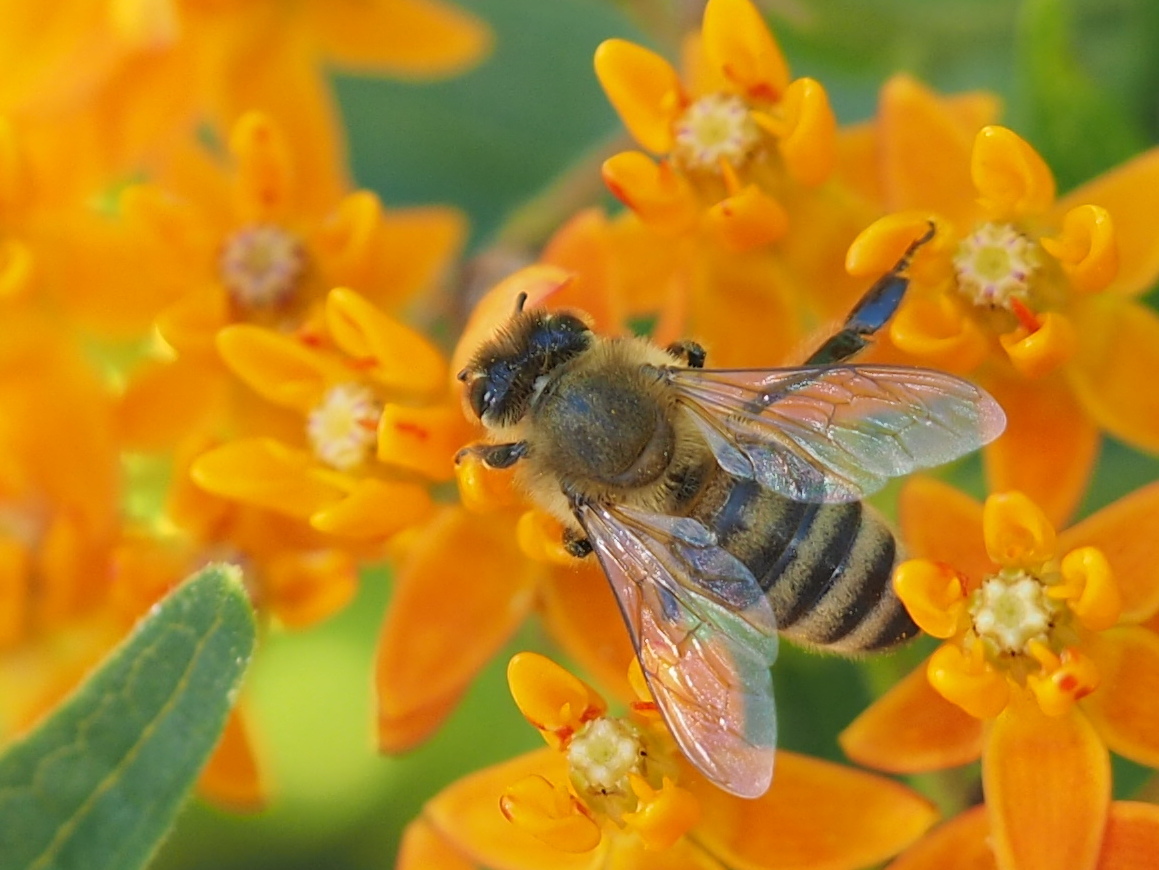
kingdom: Animalia
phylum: Arthropoda
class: Insecta
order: Hymenoptera
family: Apidae
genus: Apis
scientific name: Apis mellifera
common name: Honey bee
